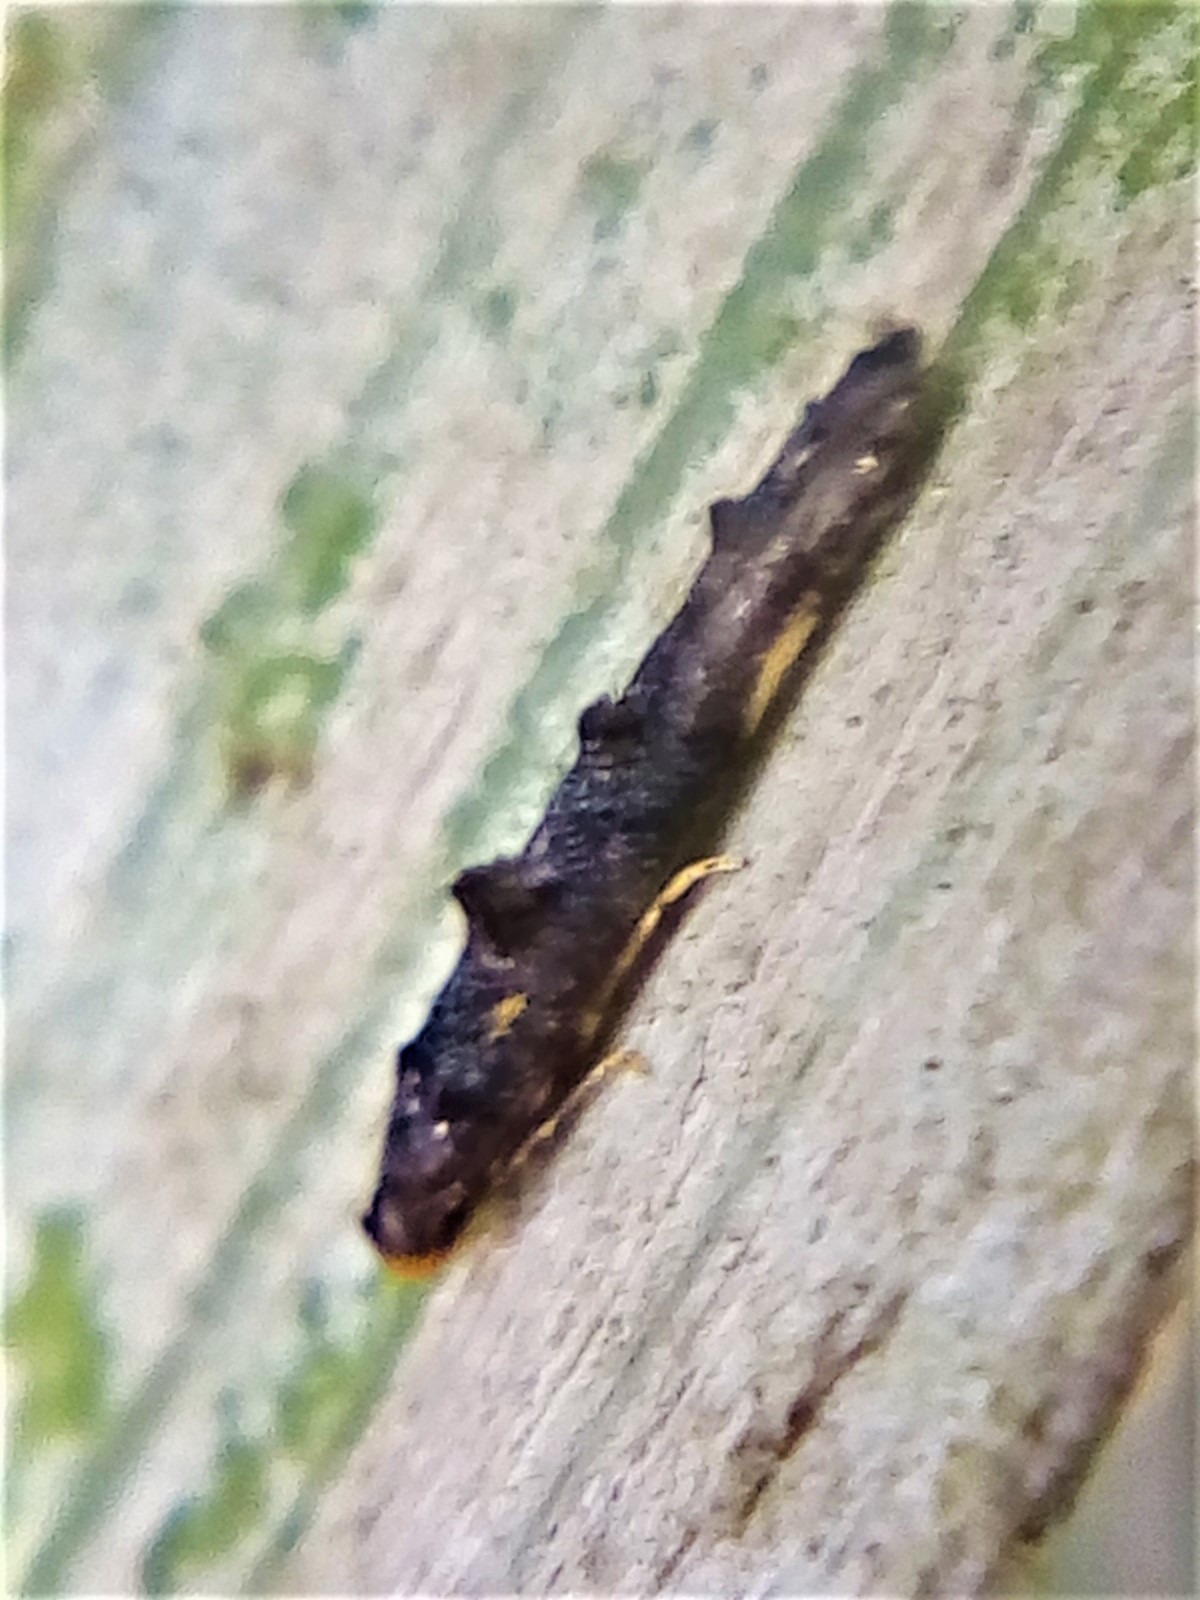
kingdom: Animalia
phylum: Arthropoda
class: Insecta
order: Lepidoptera
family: Elachistidae
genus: Microcolona
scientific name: Microcolona
